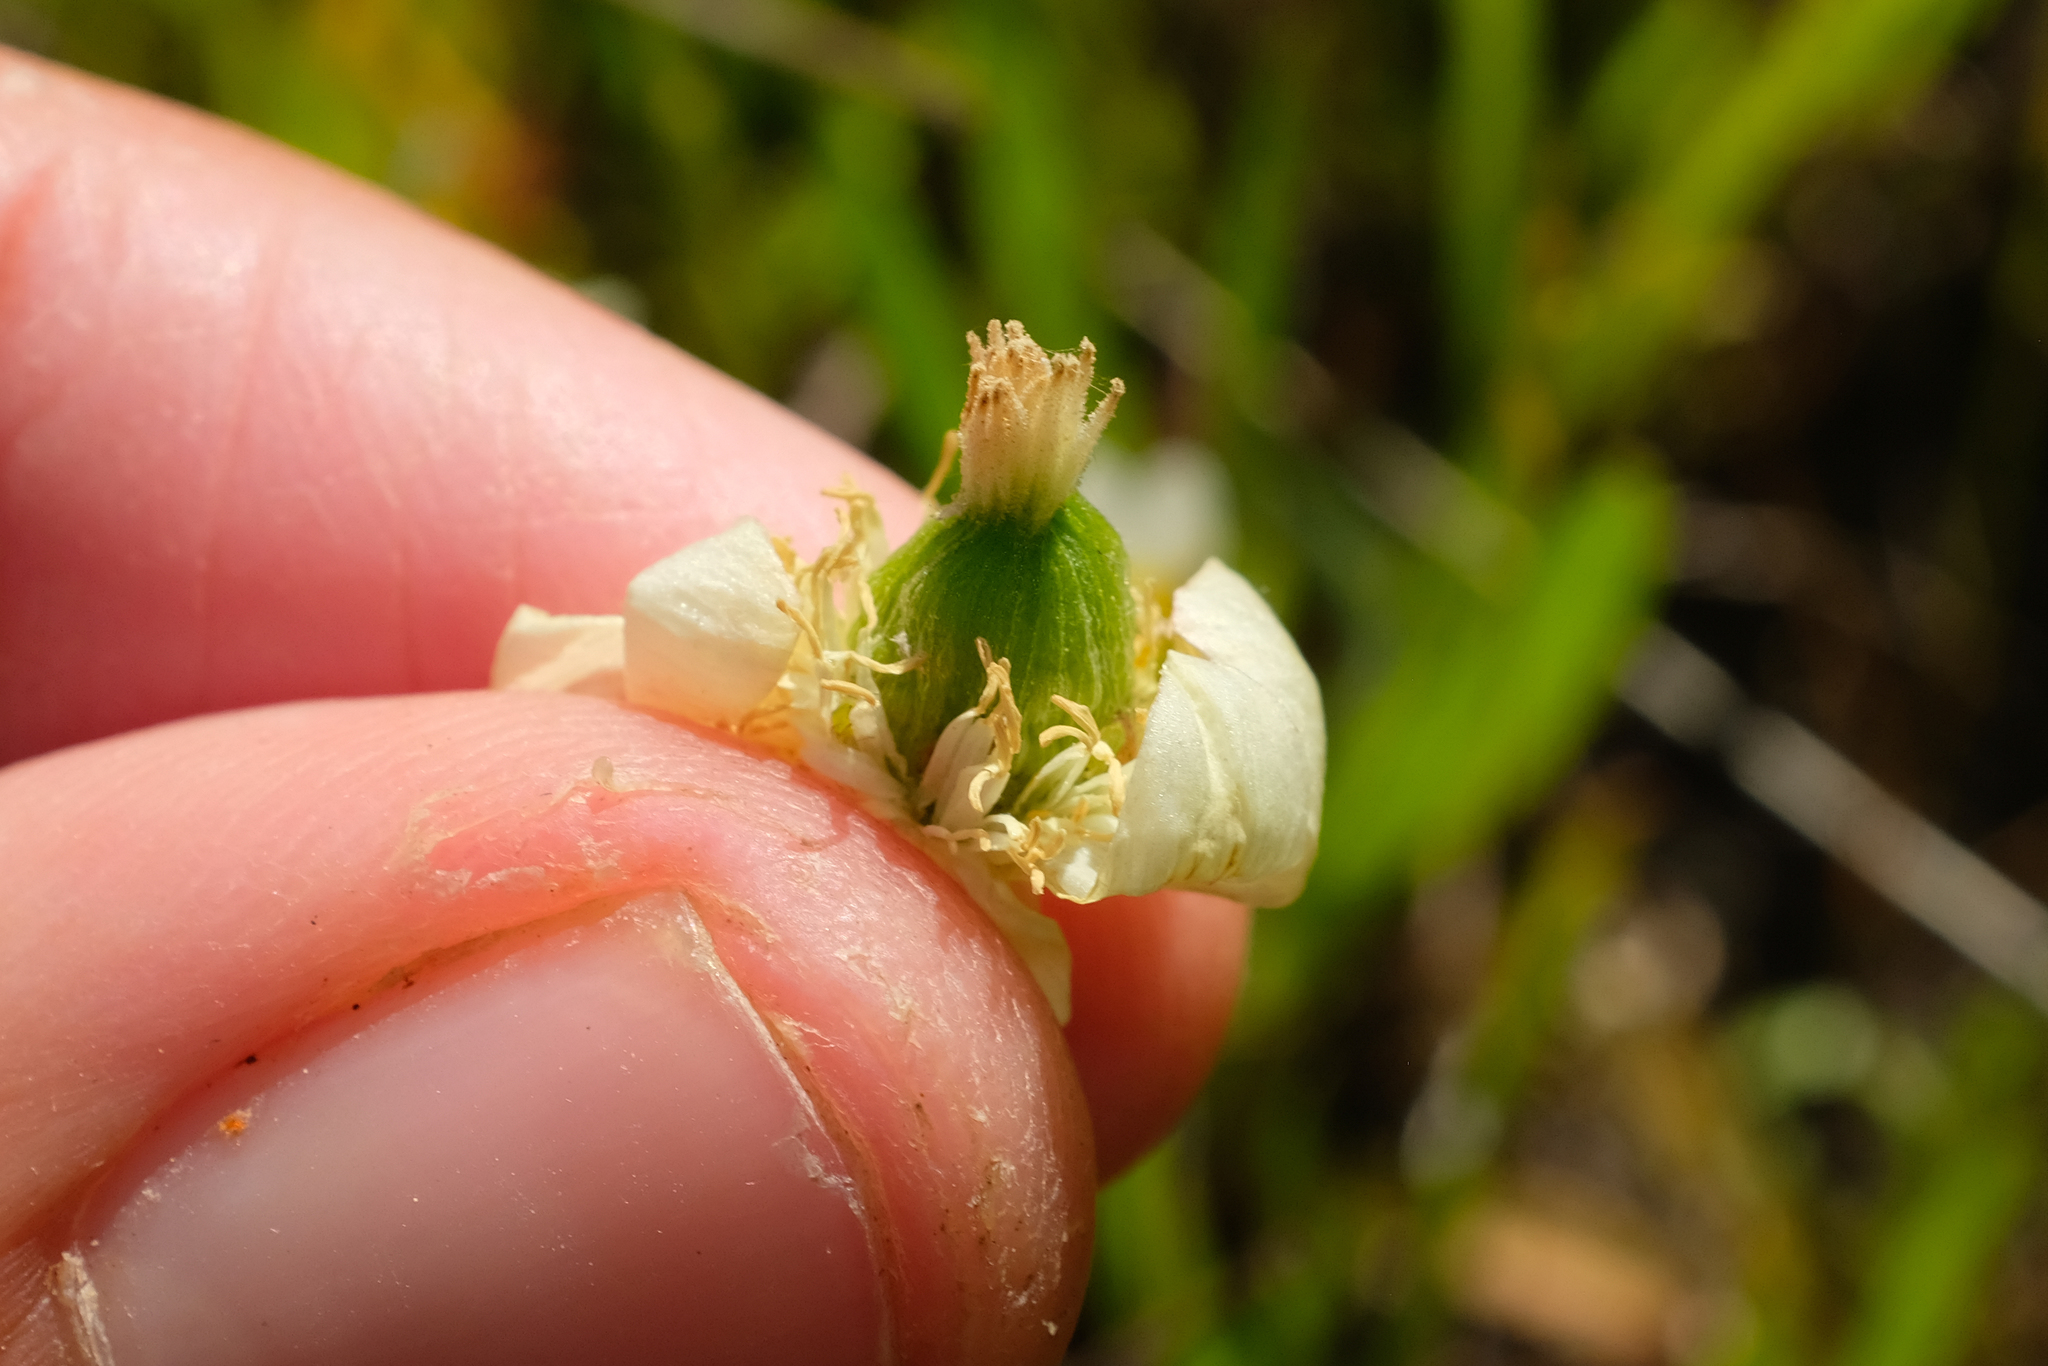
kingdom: Plantae
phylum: Tracheophyta
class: Magnoliopsida
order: Ranunculales
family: Papaveraceae
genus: Platystemon
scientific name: Platystemon californicus
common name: Cream-cups
